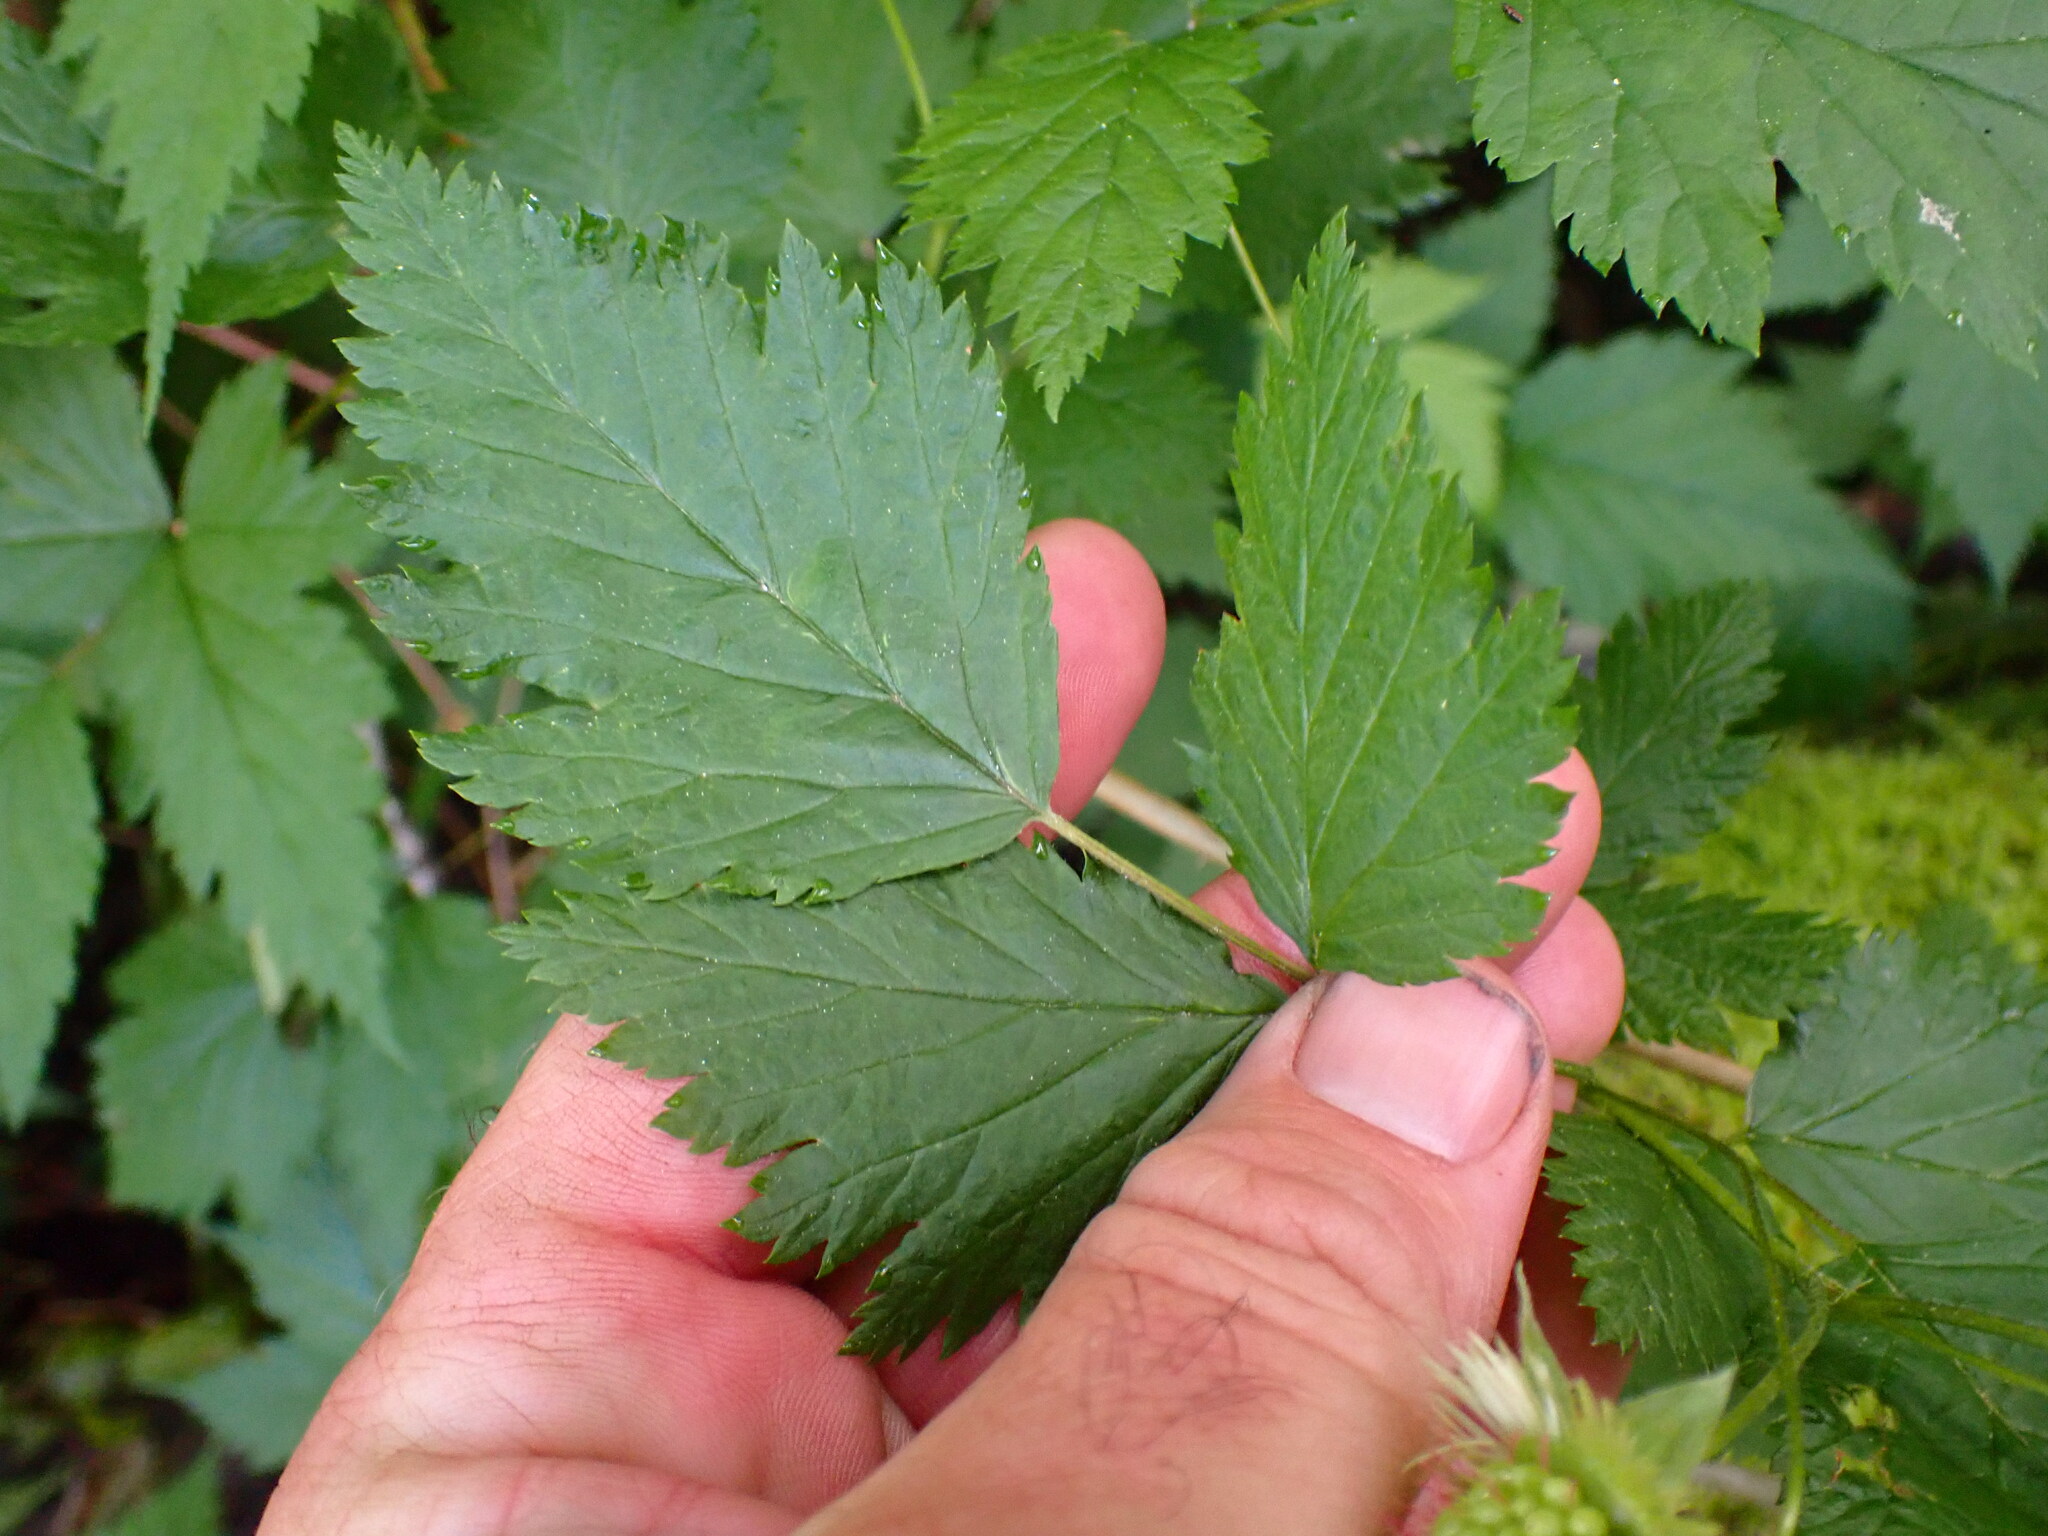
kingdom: Plantae
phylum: Tracheophyta
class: Magnoliopsida
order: Rosales
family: Rosaceae
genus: Rubus
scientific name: Rubus spectabilis
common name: Salmonberry
